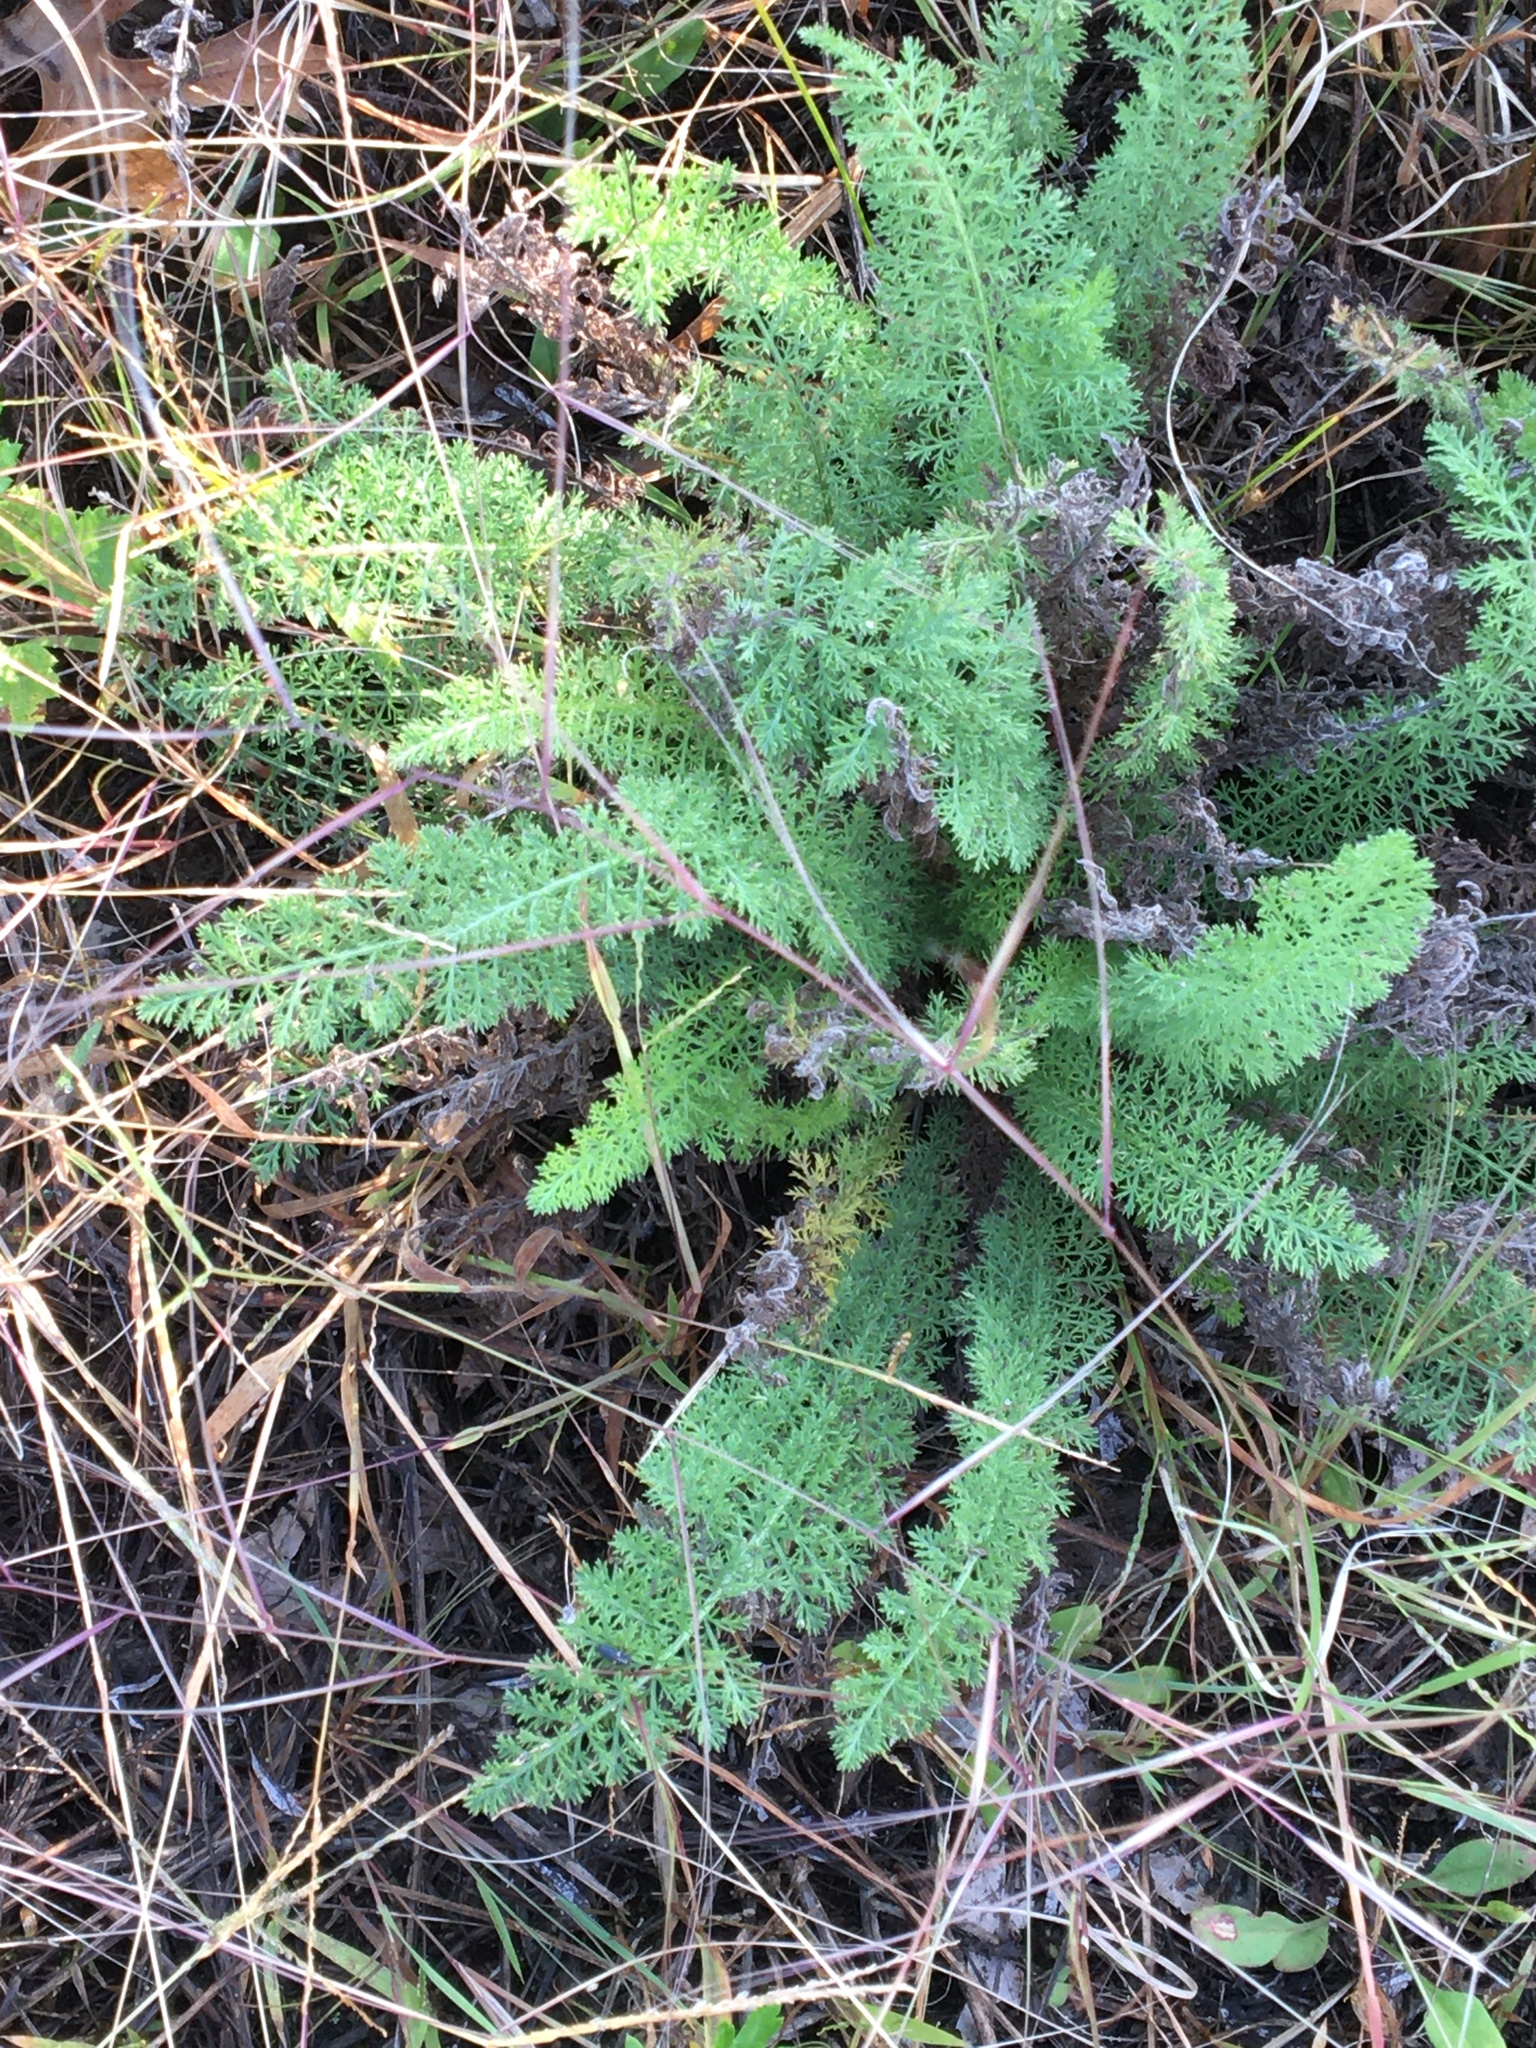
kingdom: Plantae
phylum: Tracheophyta
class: Magnoliopsida
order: Asterales
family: Asteraceae
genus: Achillea
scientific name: Achillea millefolium
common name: Yarrow
